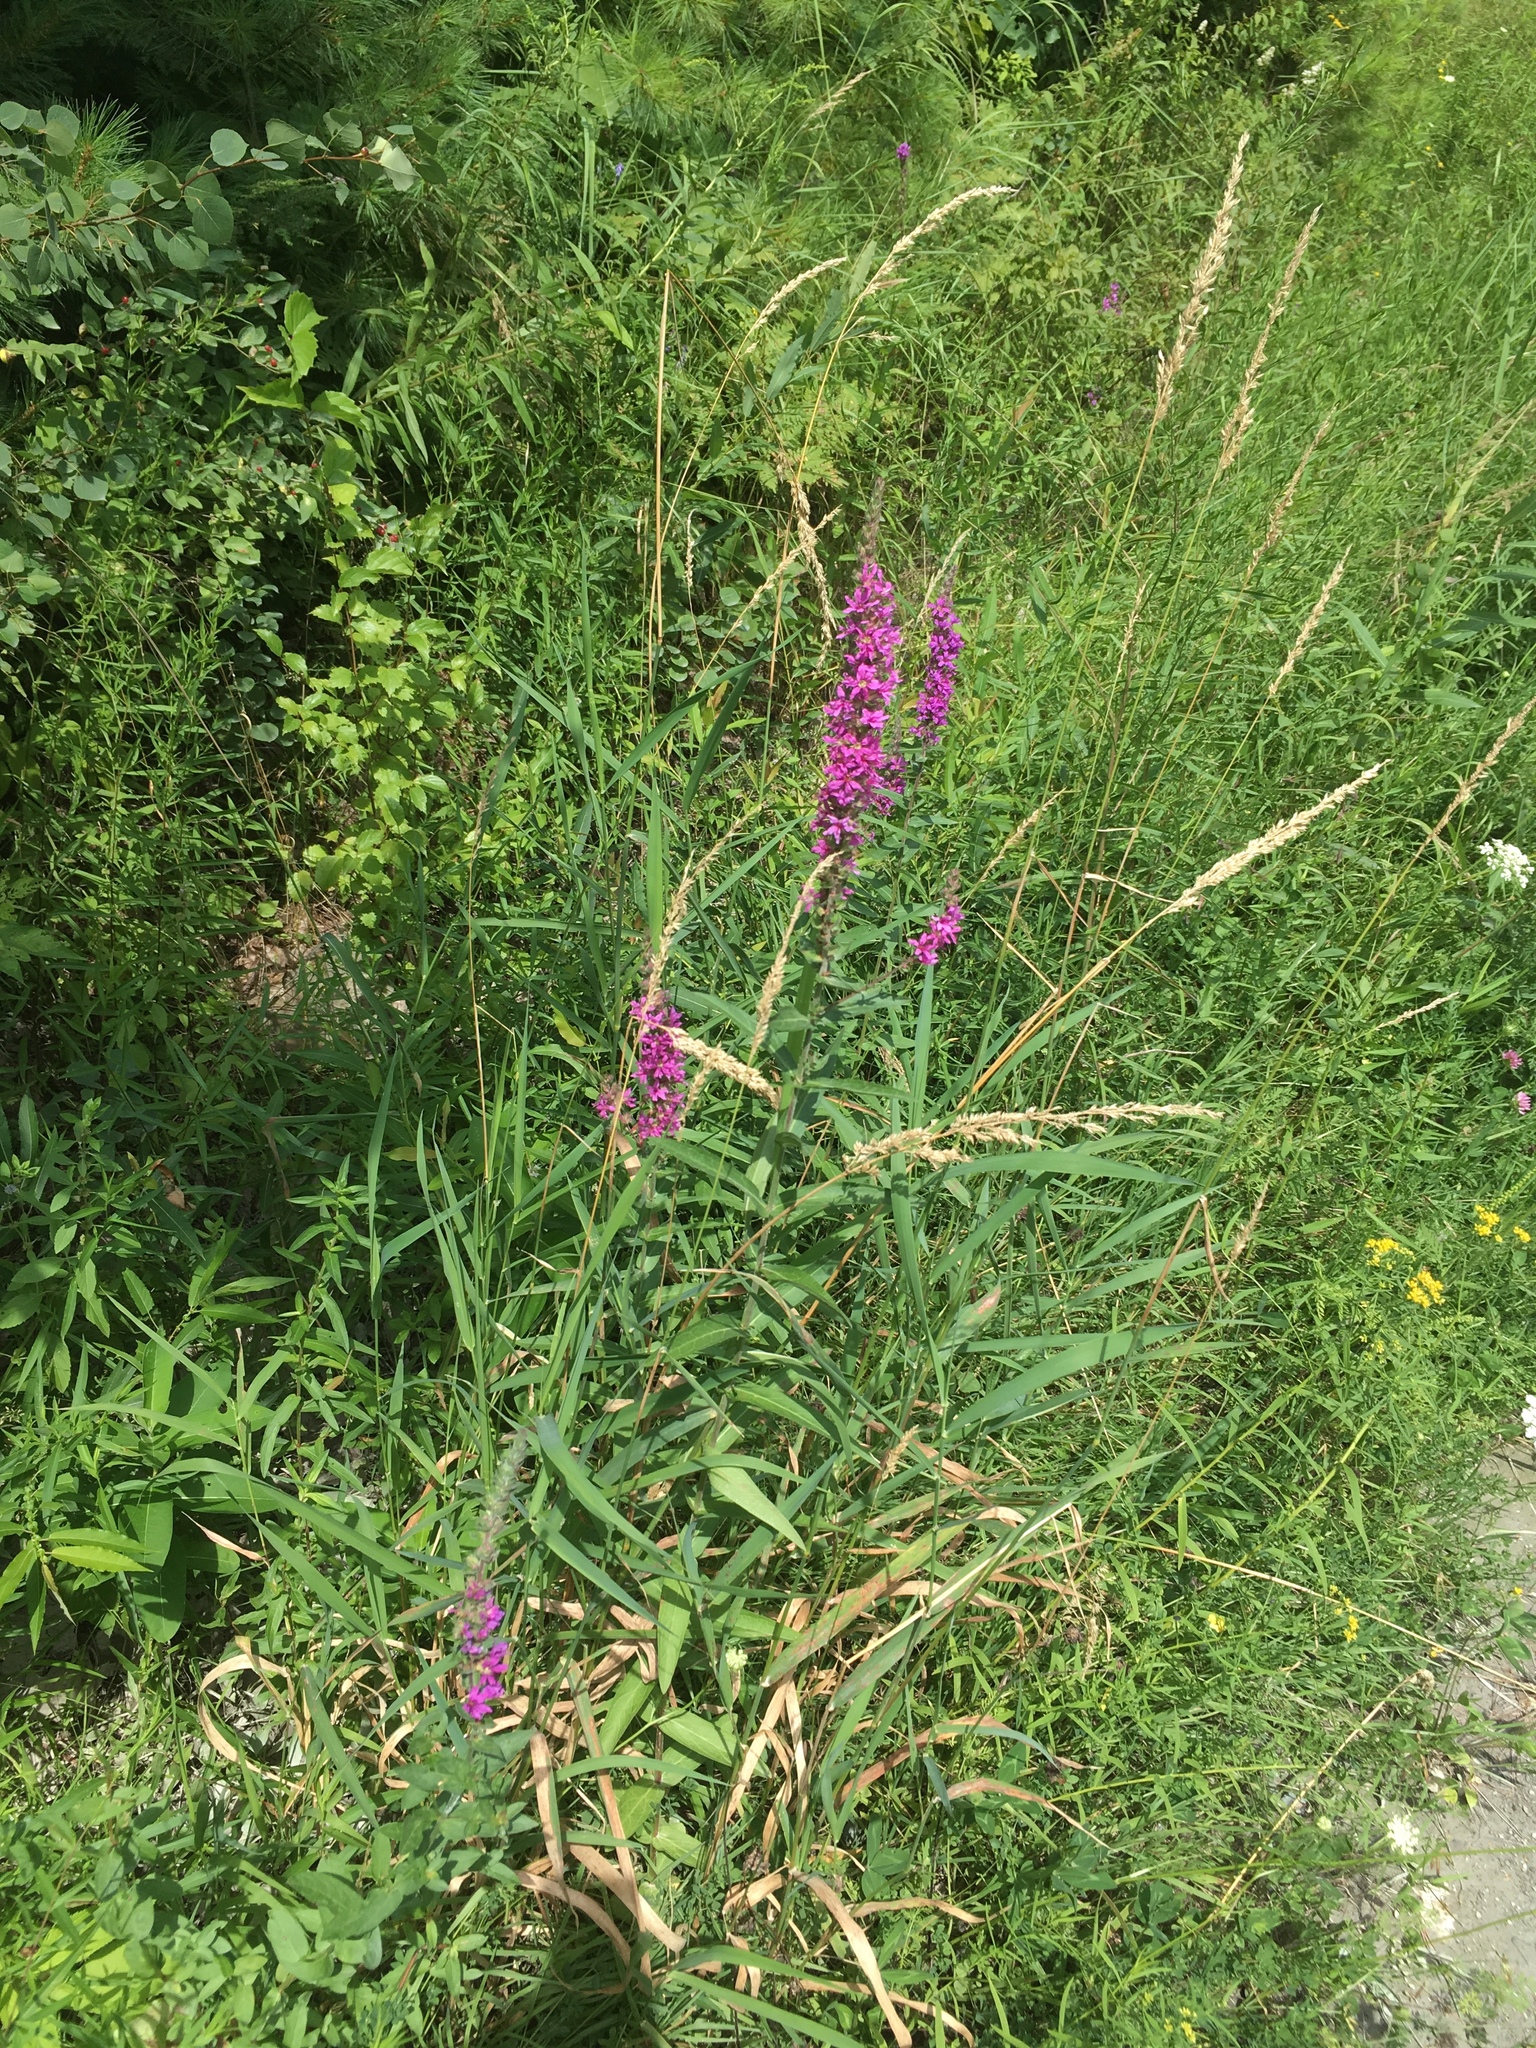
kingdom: Plantae
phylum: Tracheophyta
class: Liliopsida
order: Poales
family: Poaceae
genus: Phalaris
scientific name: Phalaris arundinacea
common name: Reed canary-grass
